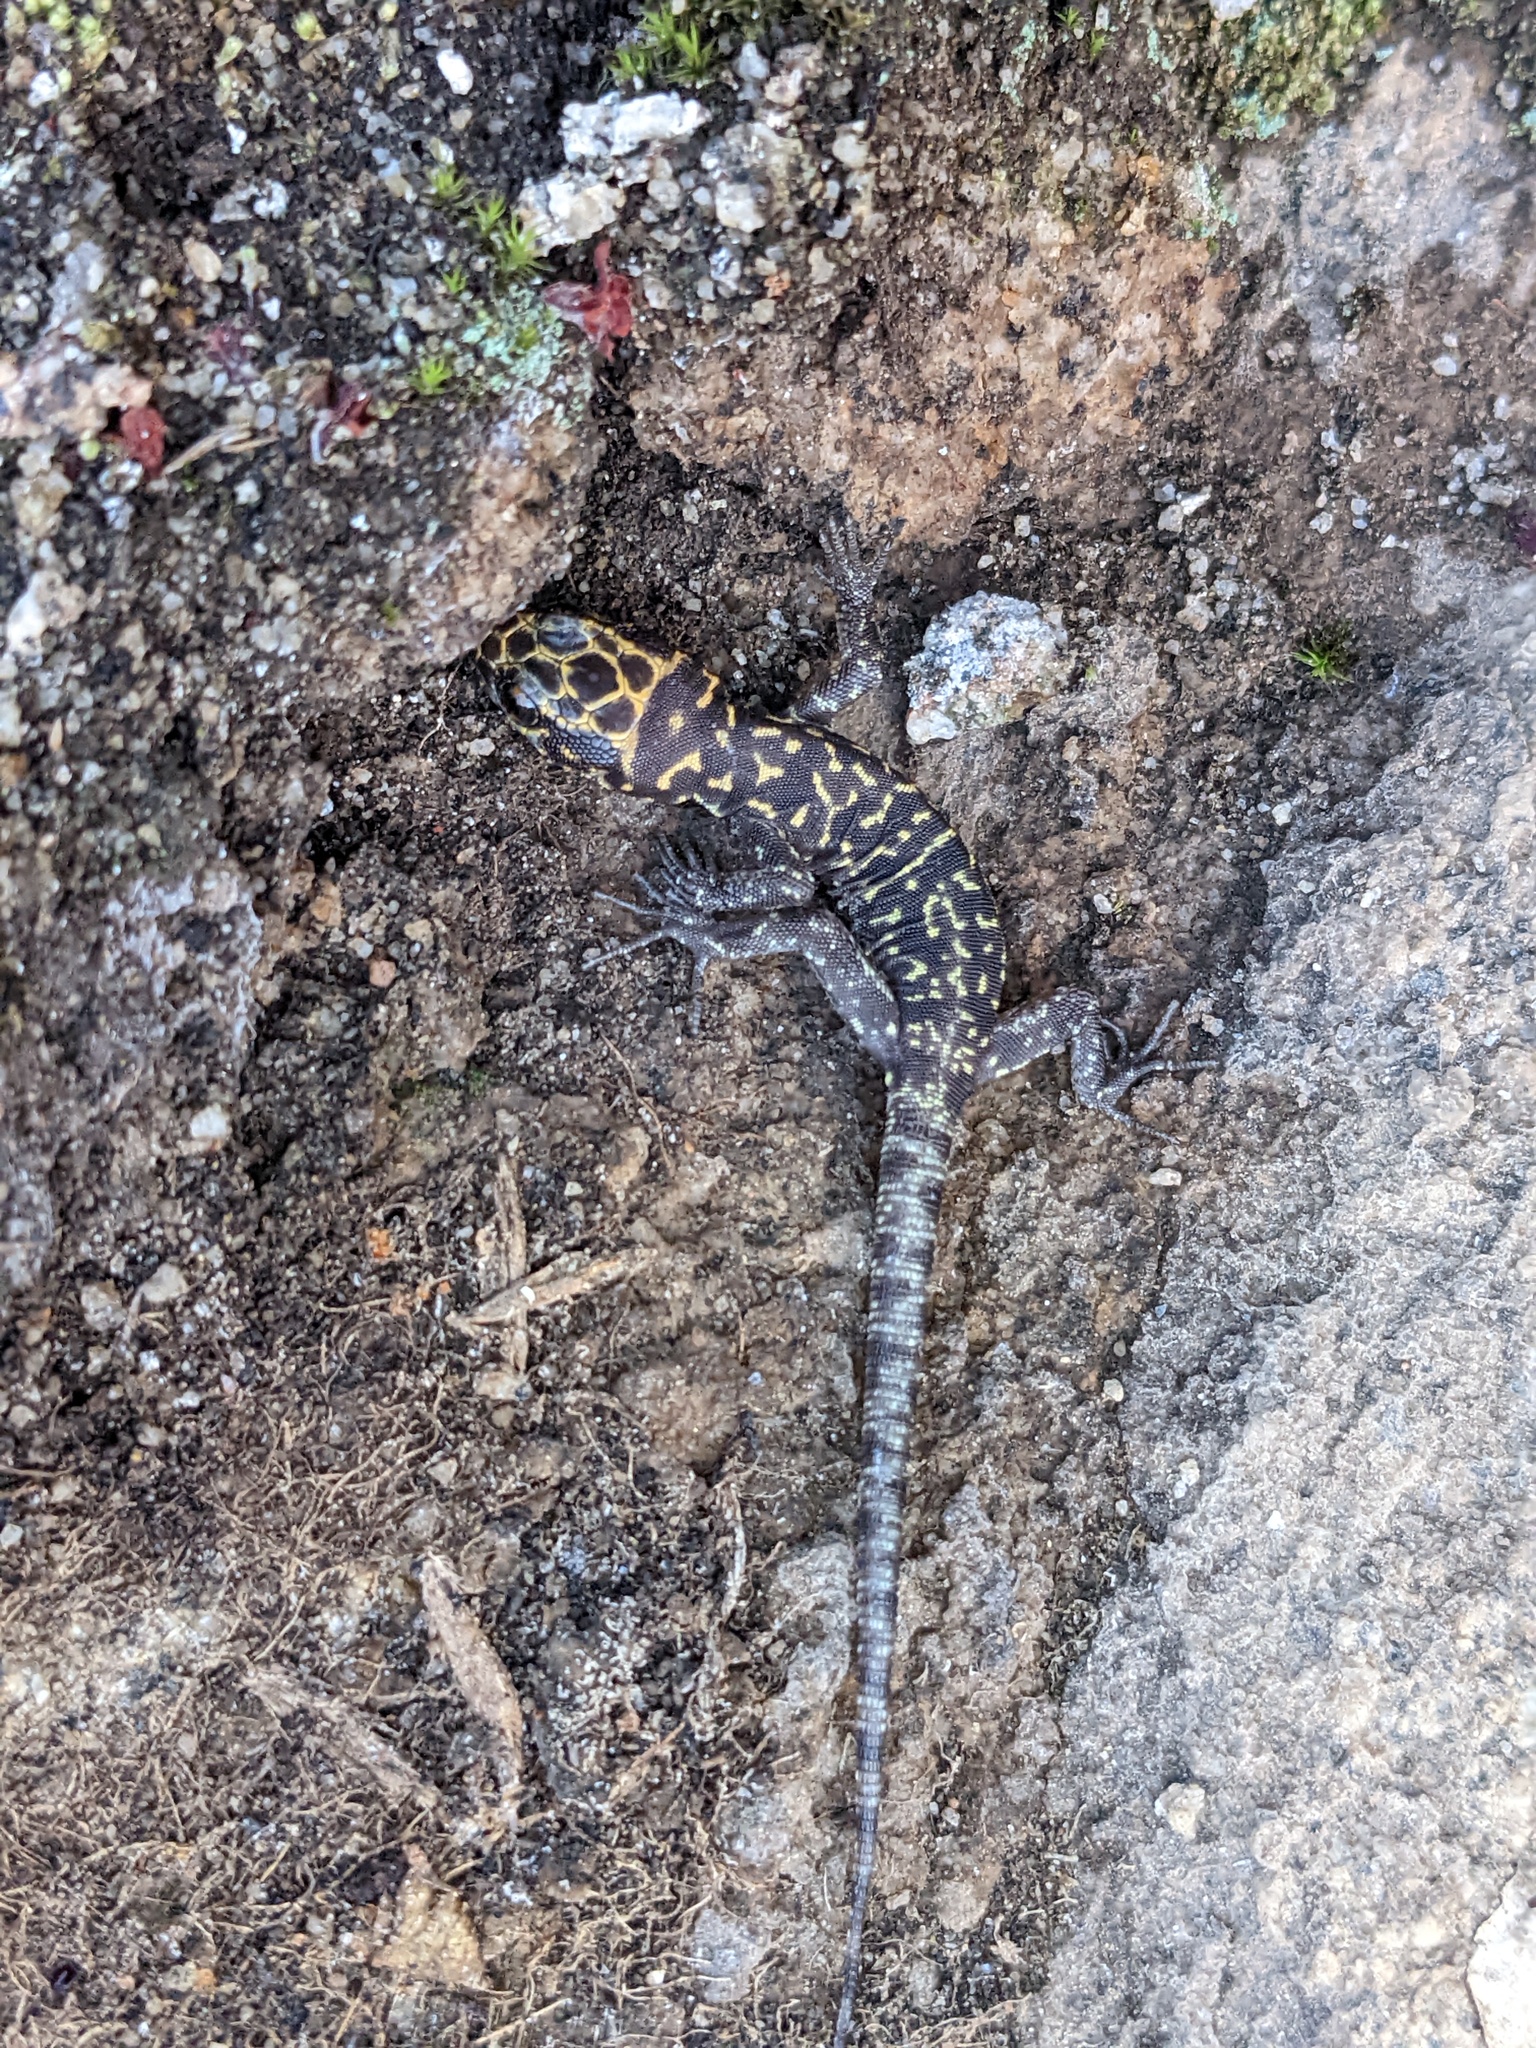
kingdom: Animalia
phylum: Chordata
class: Squamata
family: Xantusiidae
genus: Xantusia
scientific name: Xantusia henshawi
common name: Granite night lizard
